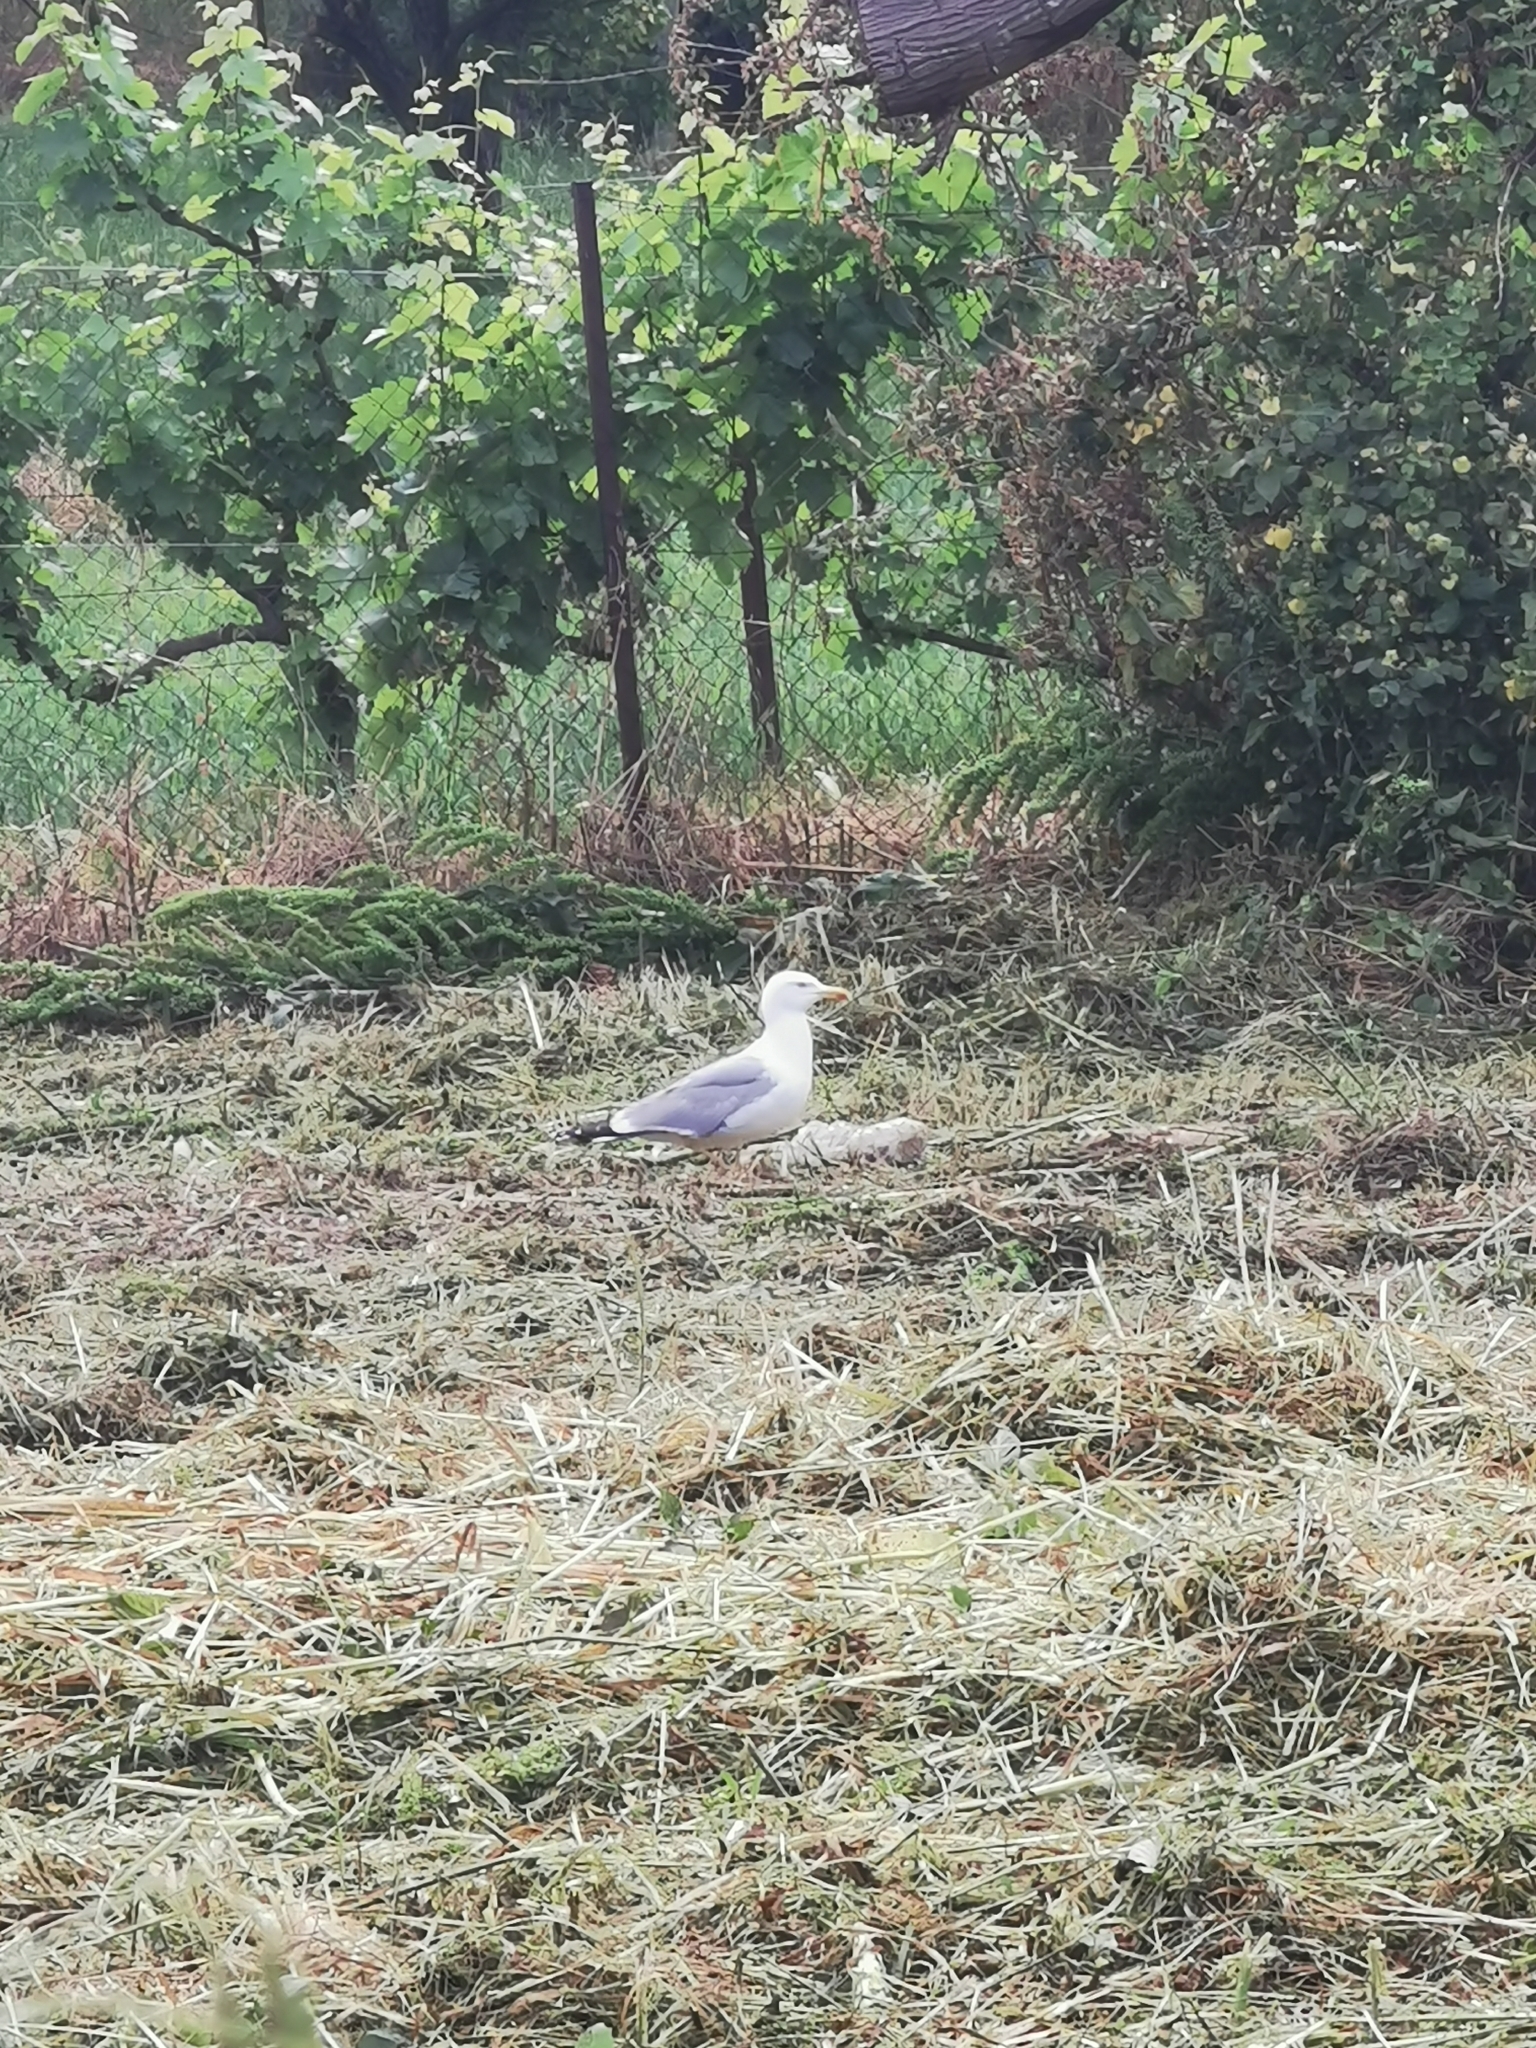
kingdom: Animalia
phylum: Chordata
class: Aves
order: Charadriiformes
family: Laridae
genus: Larus
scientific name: Larus michahellis
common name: Yellow-legged gull
